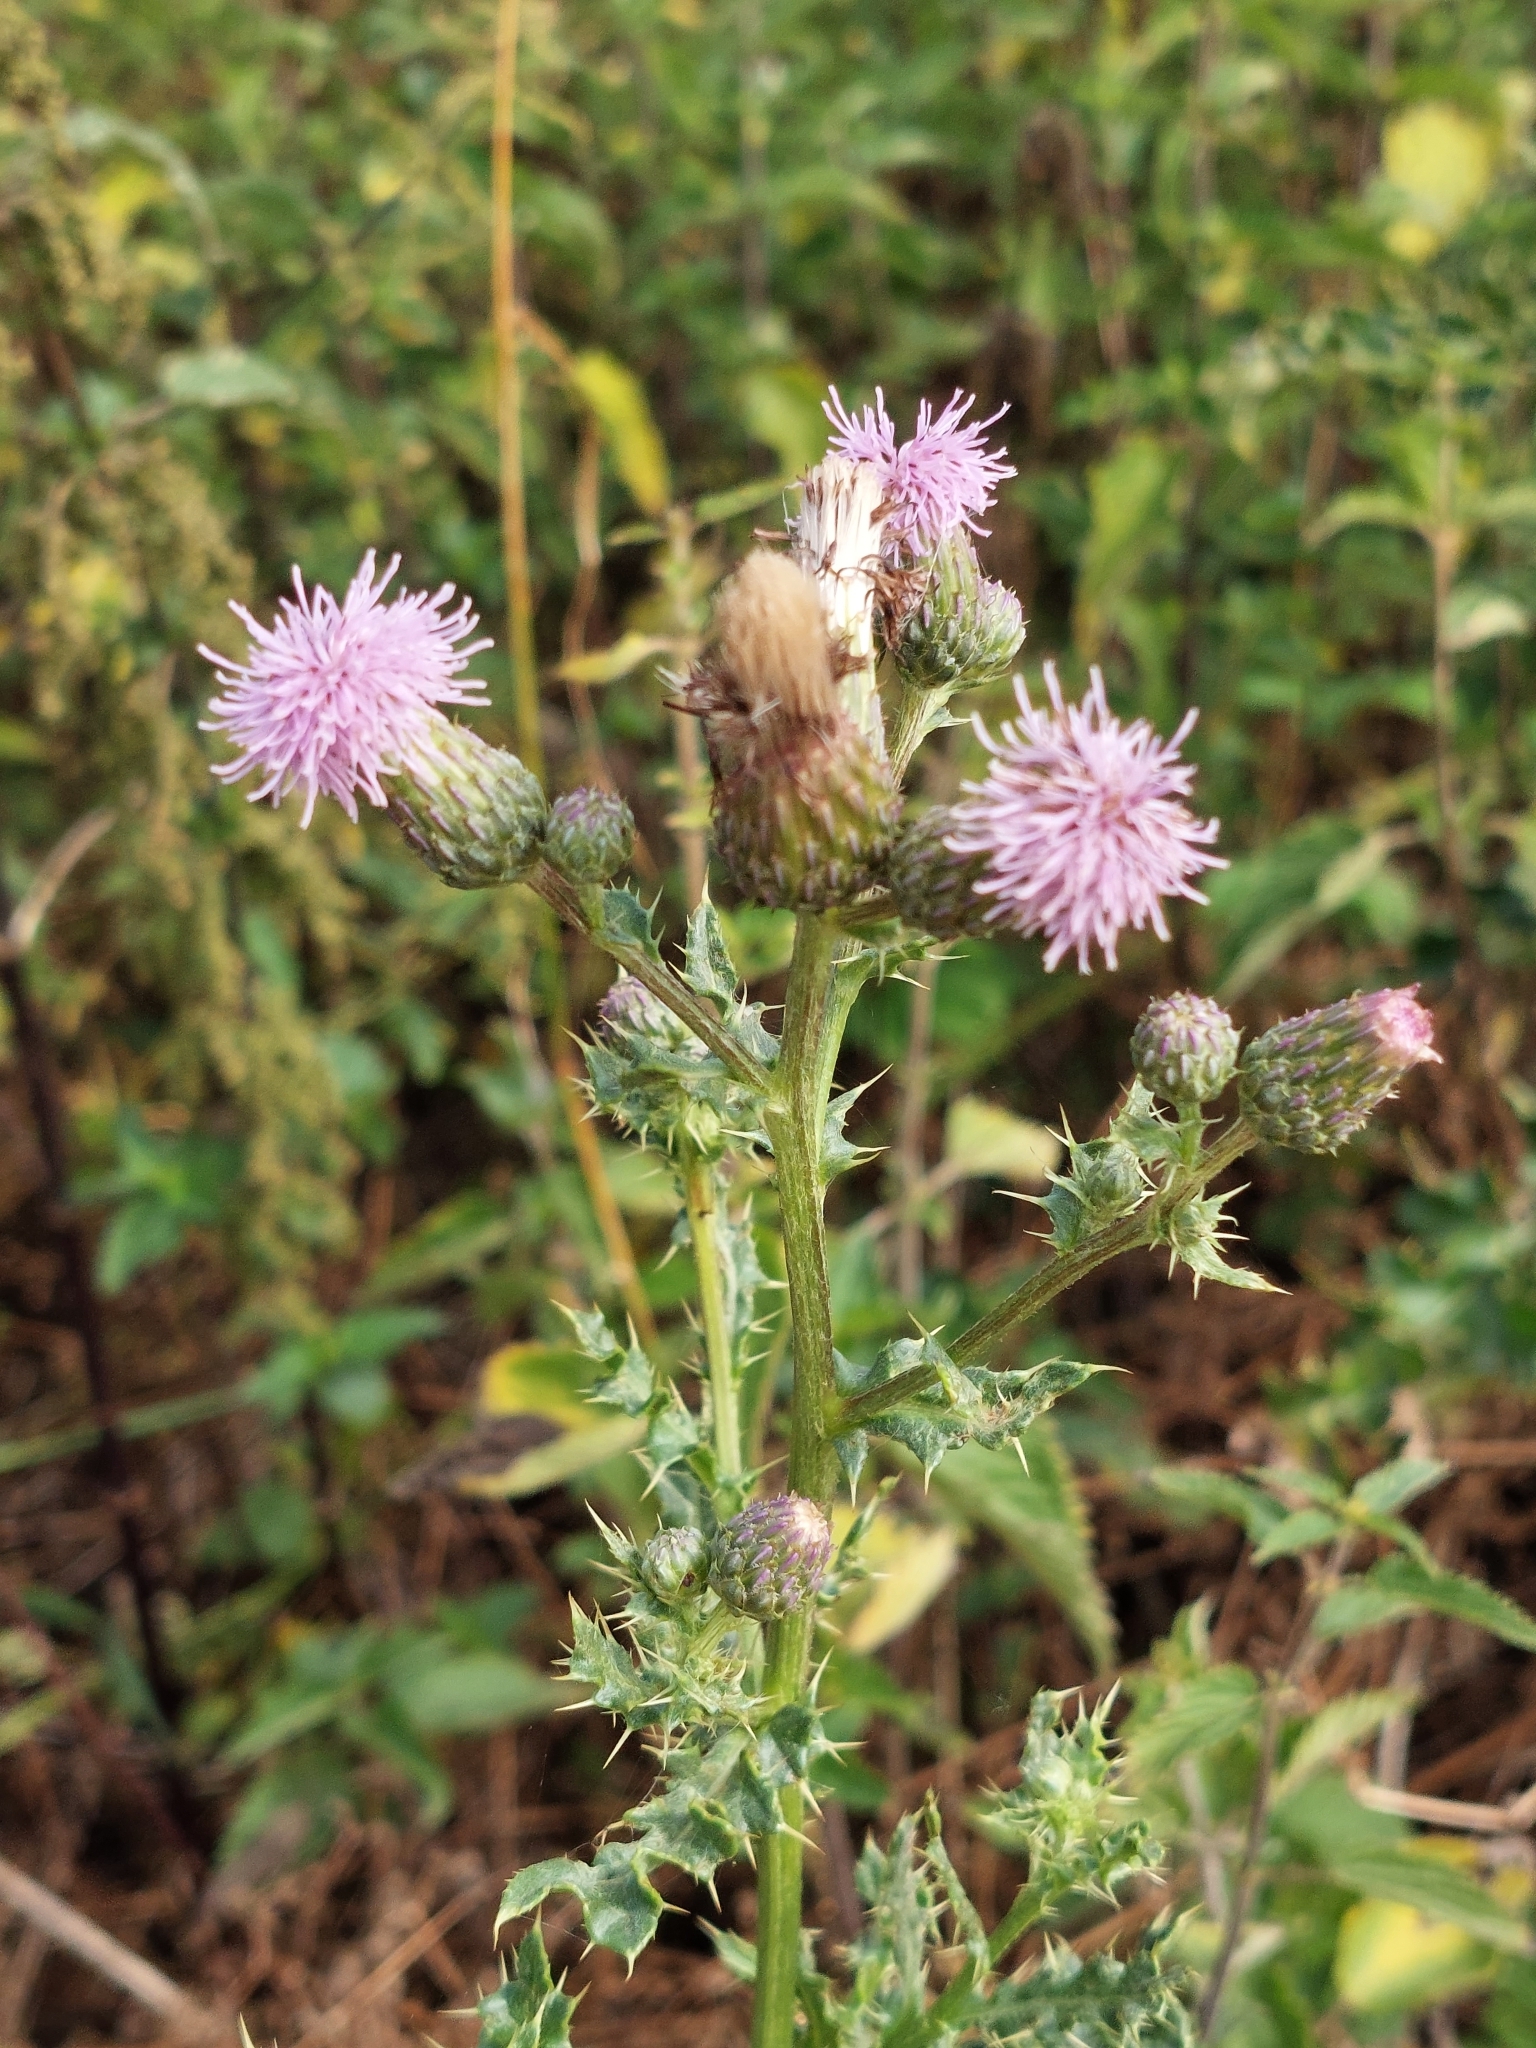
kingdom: Plantae
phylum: Tracheophyta
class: Magnoliopsida
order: Asterales
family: Asteraceae
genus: Cirsium
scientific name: Cirsium arvense
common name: Creeping thistle
